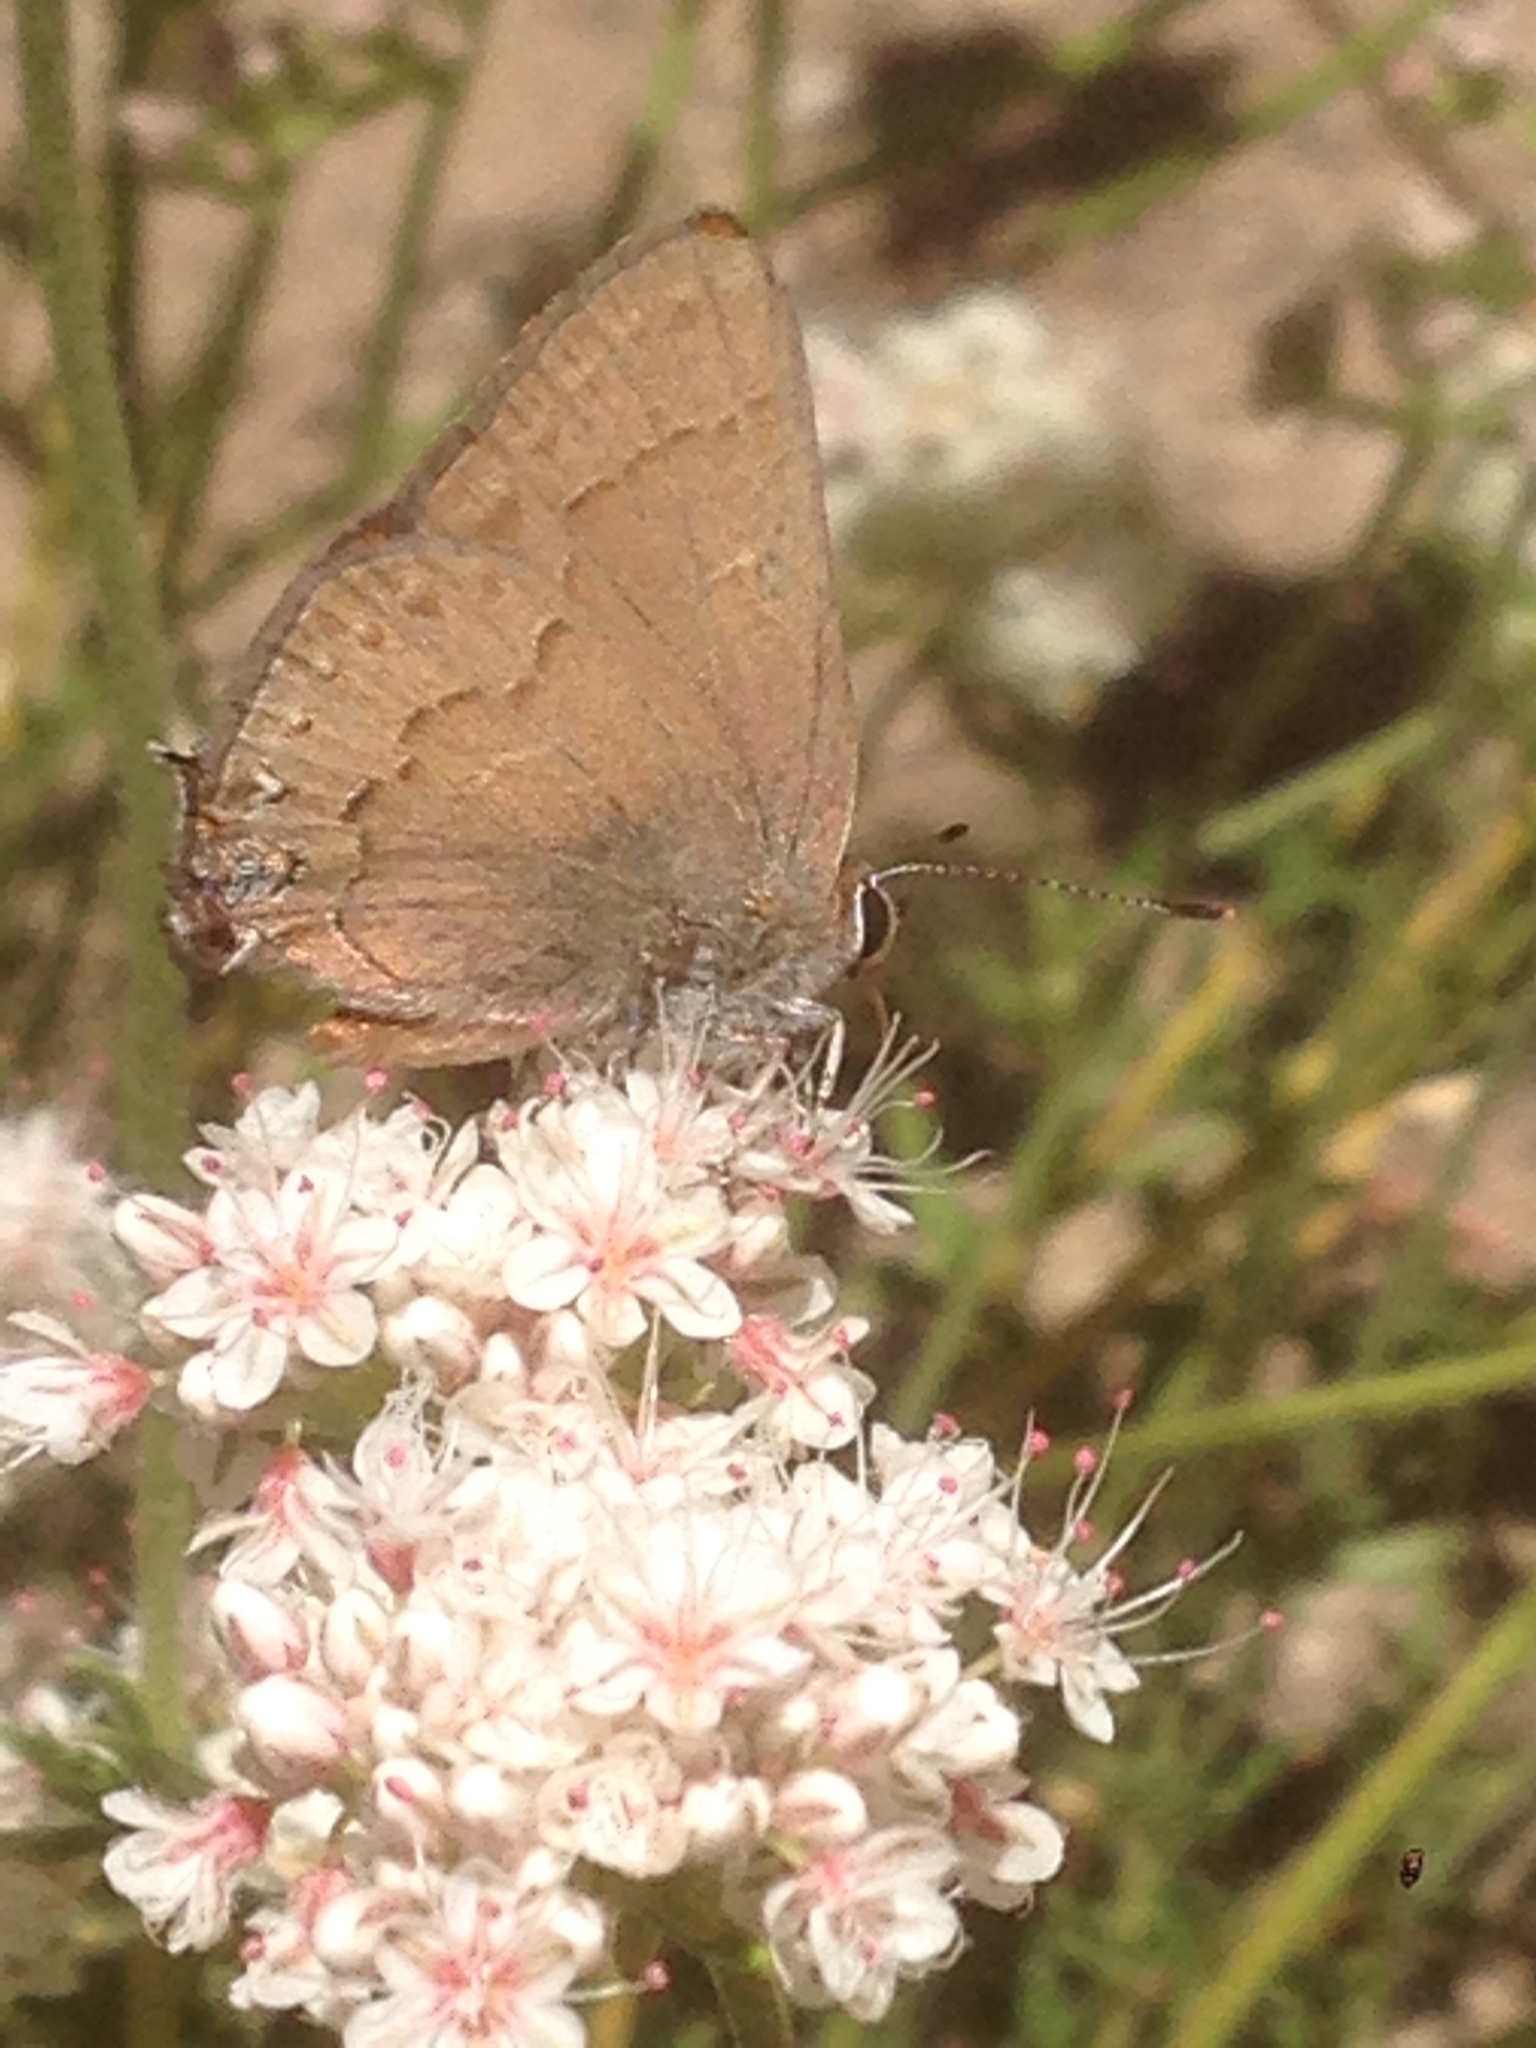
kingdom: Animalia
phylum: Arthropoda
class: Insecta
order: Lepidoptera
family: Lycaenidae
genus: Strymon
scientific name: Strymon saepium
